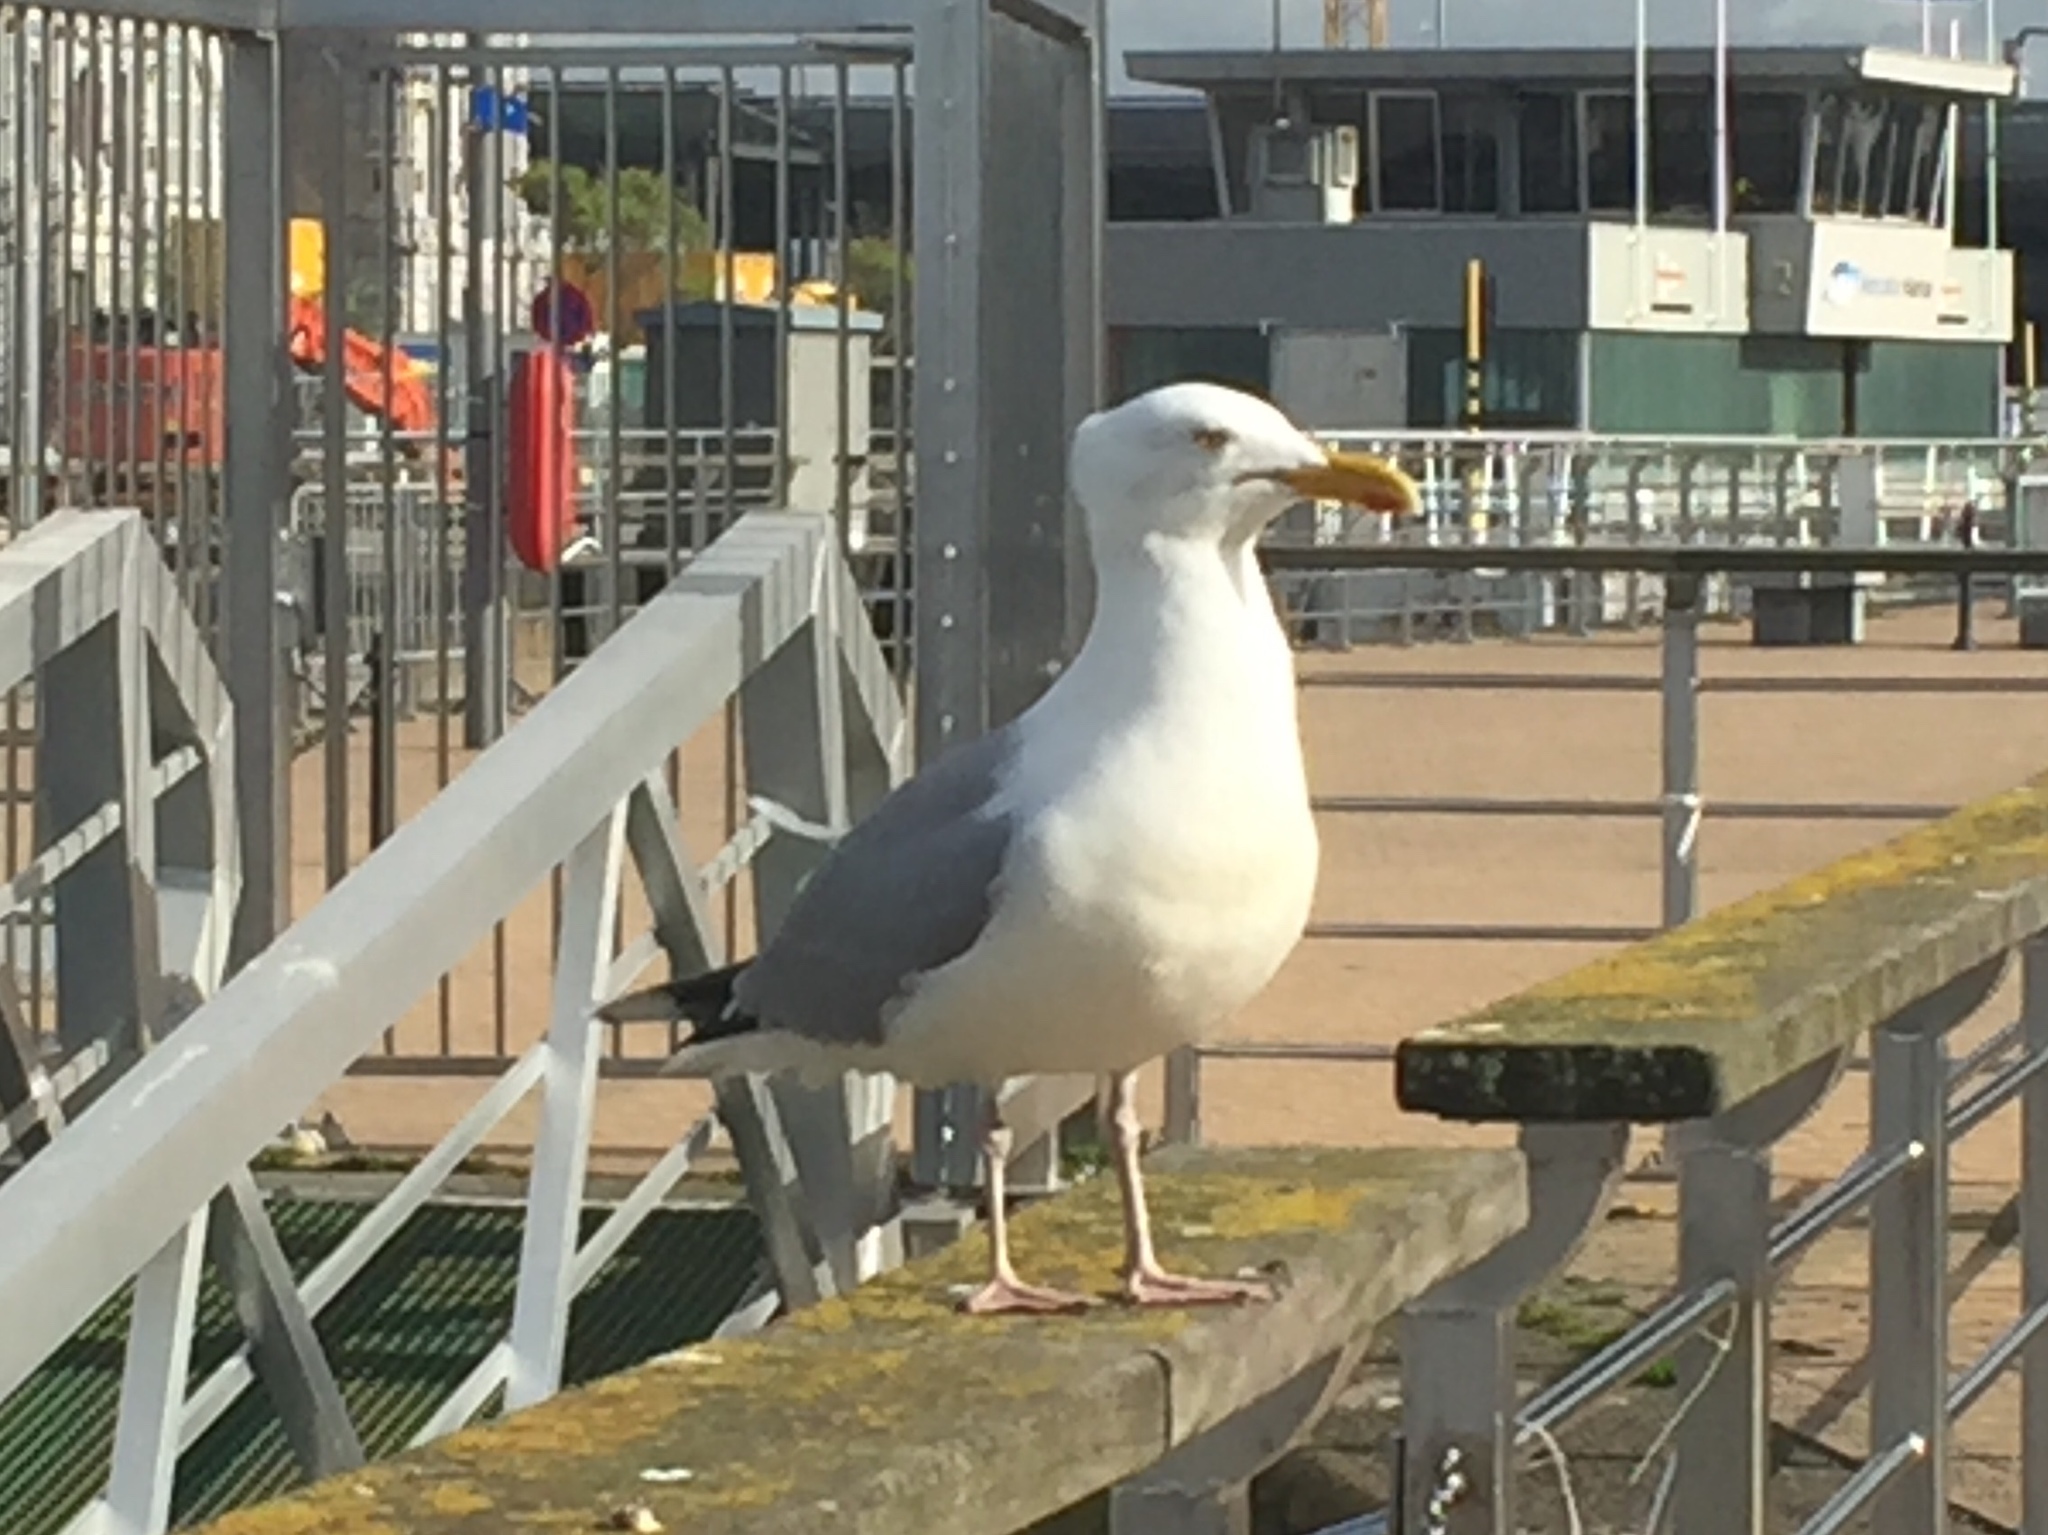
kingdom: Animalia
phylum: Chordata
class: Aves
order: Charadriiformes
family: Laridae
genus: Larus
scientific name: Larus argentatus
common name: Herring gull
